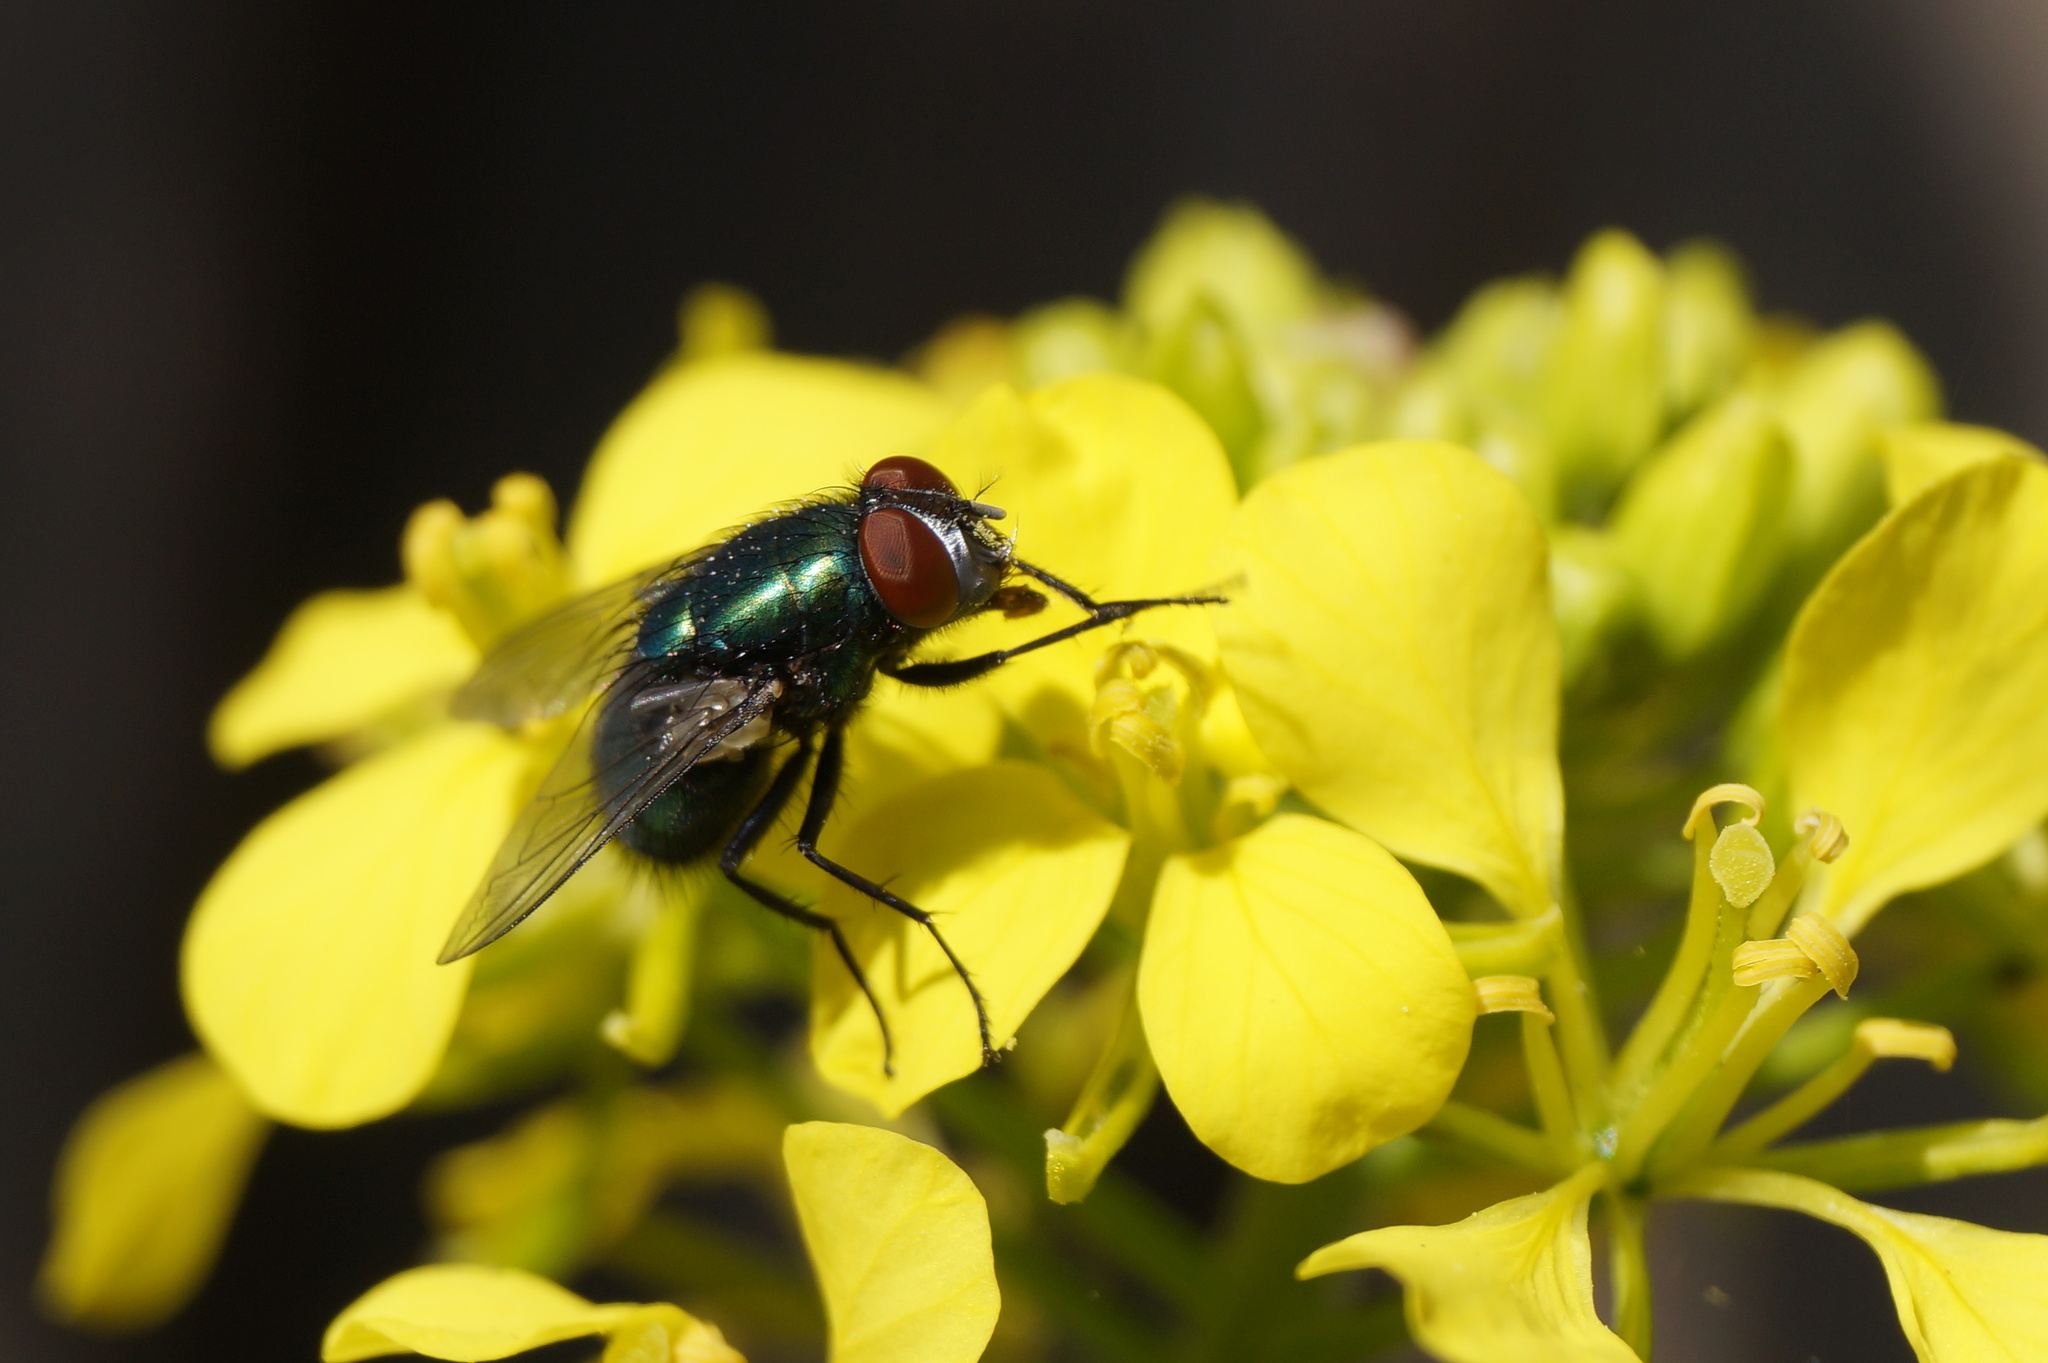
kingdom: Animalia
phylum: Arthropoda
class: Insecta
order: Diptera
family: Calliphoridae
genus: Lucilia
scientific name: Lucilia sericata
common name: Blow fly
